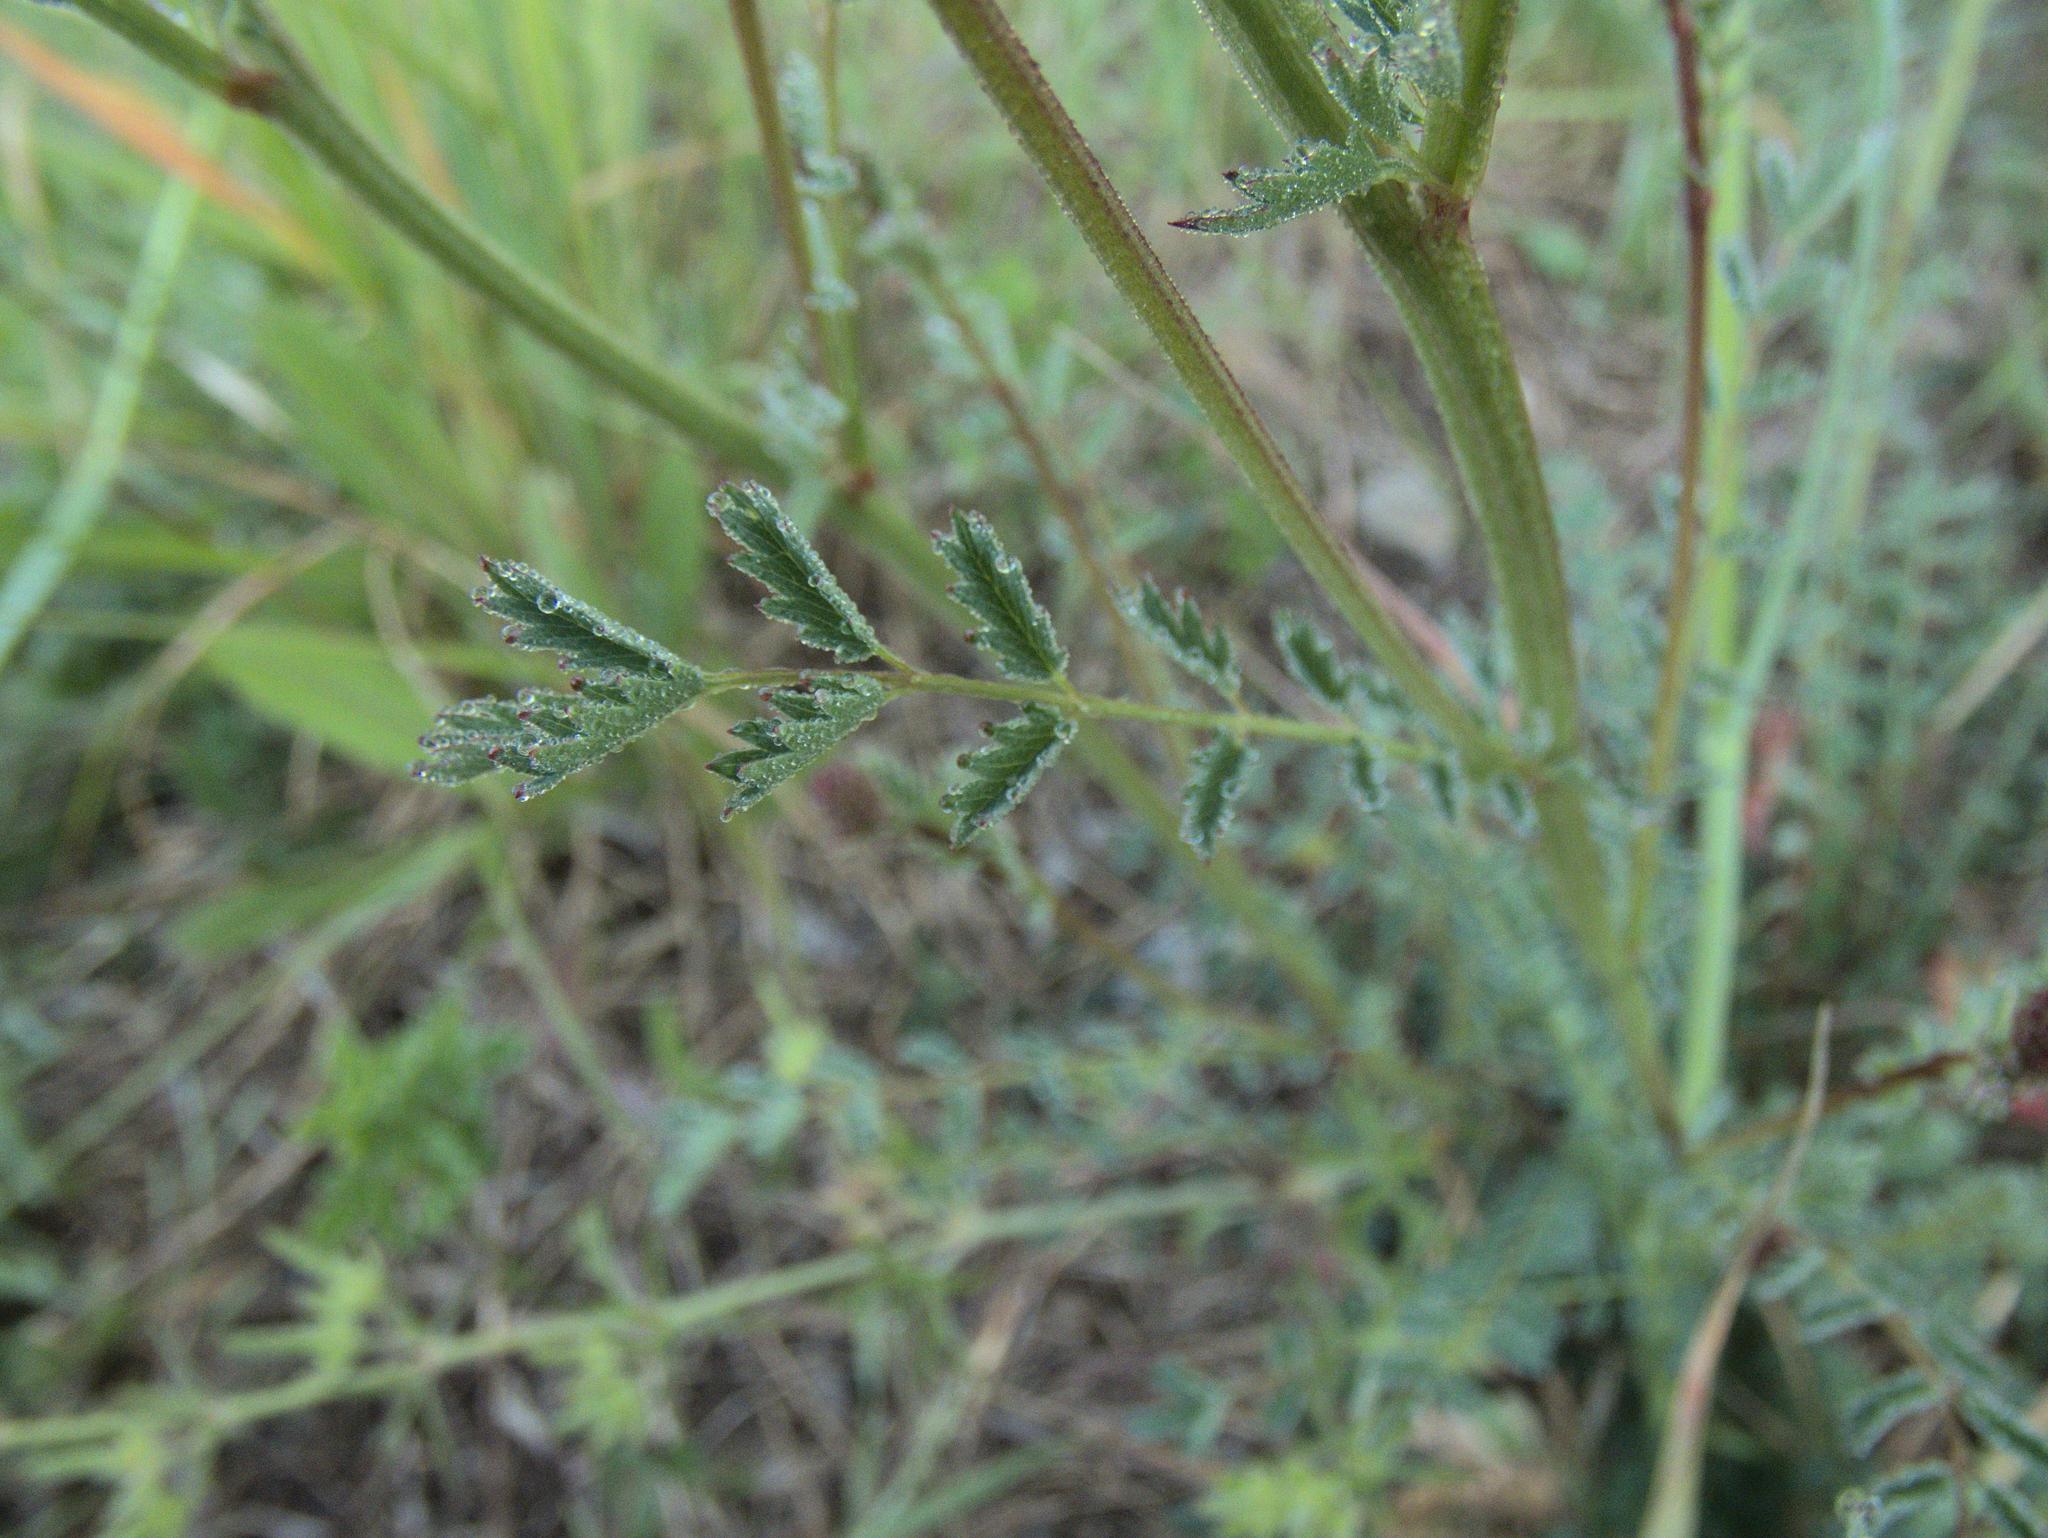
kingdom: Plantae
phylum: Tracheophyta
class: Magnoliopsida
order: Rosales
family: Rosaceae
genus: Poterium
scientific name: Poterium sanguisorba
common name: Salad burnet
